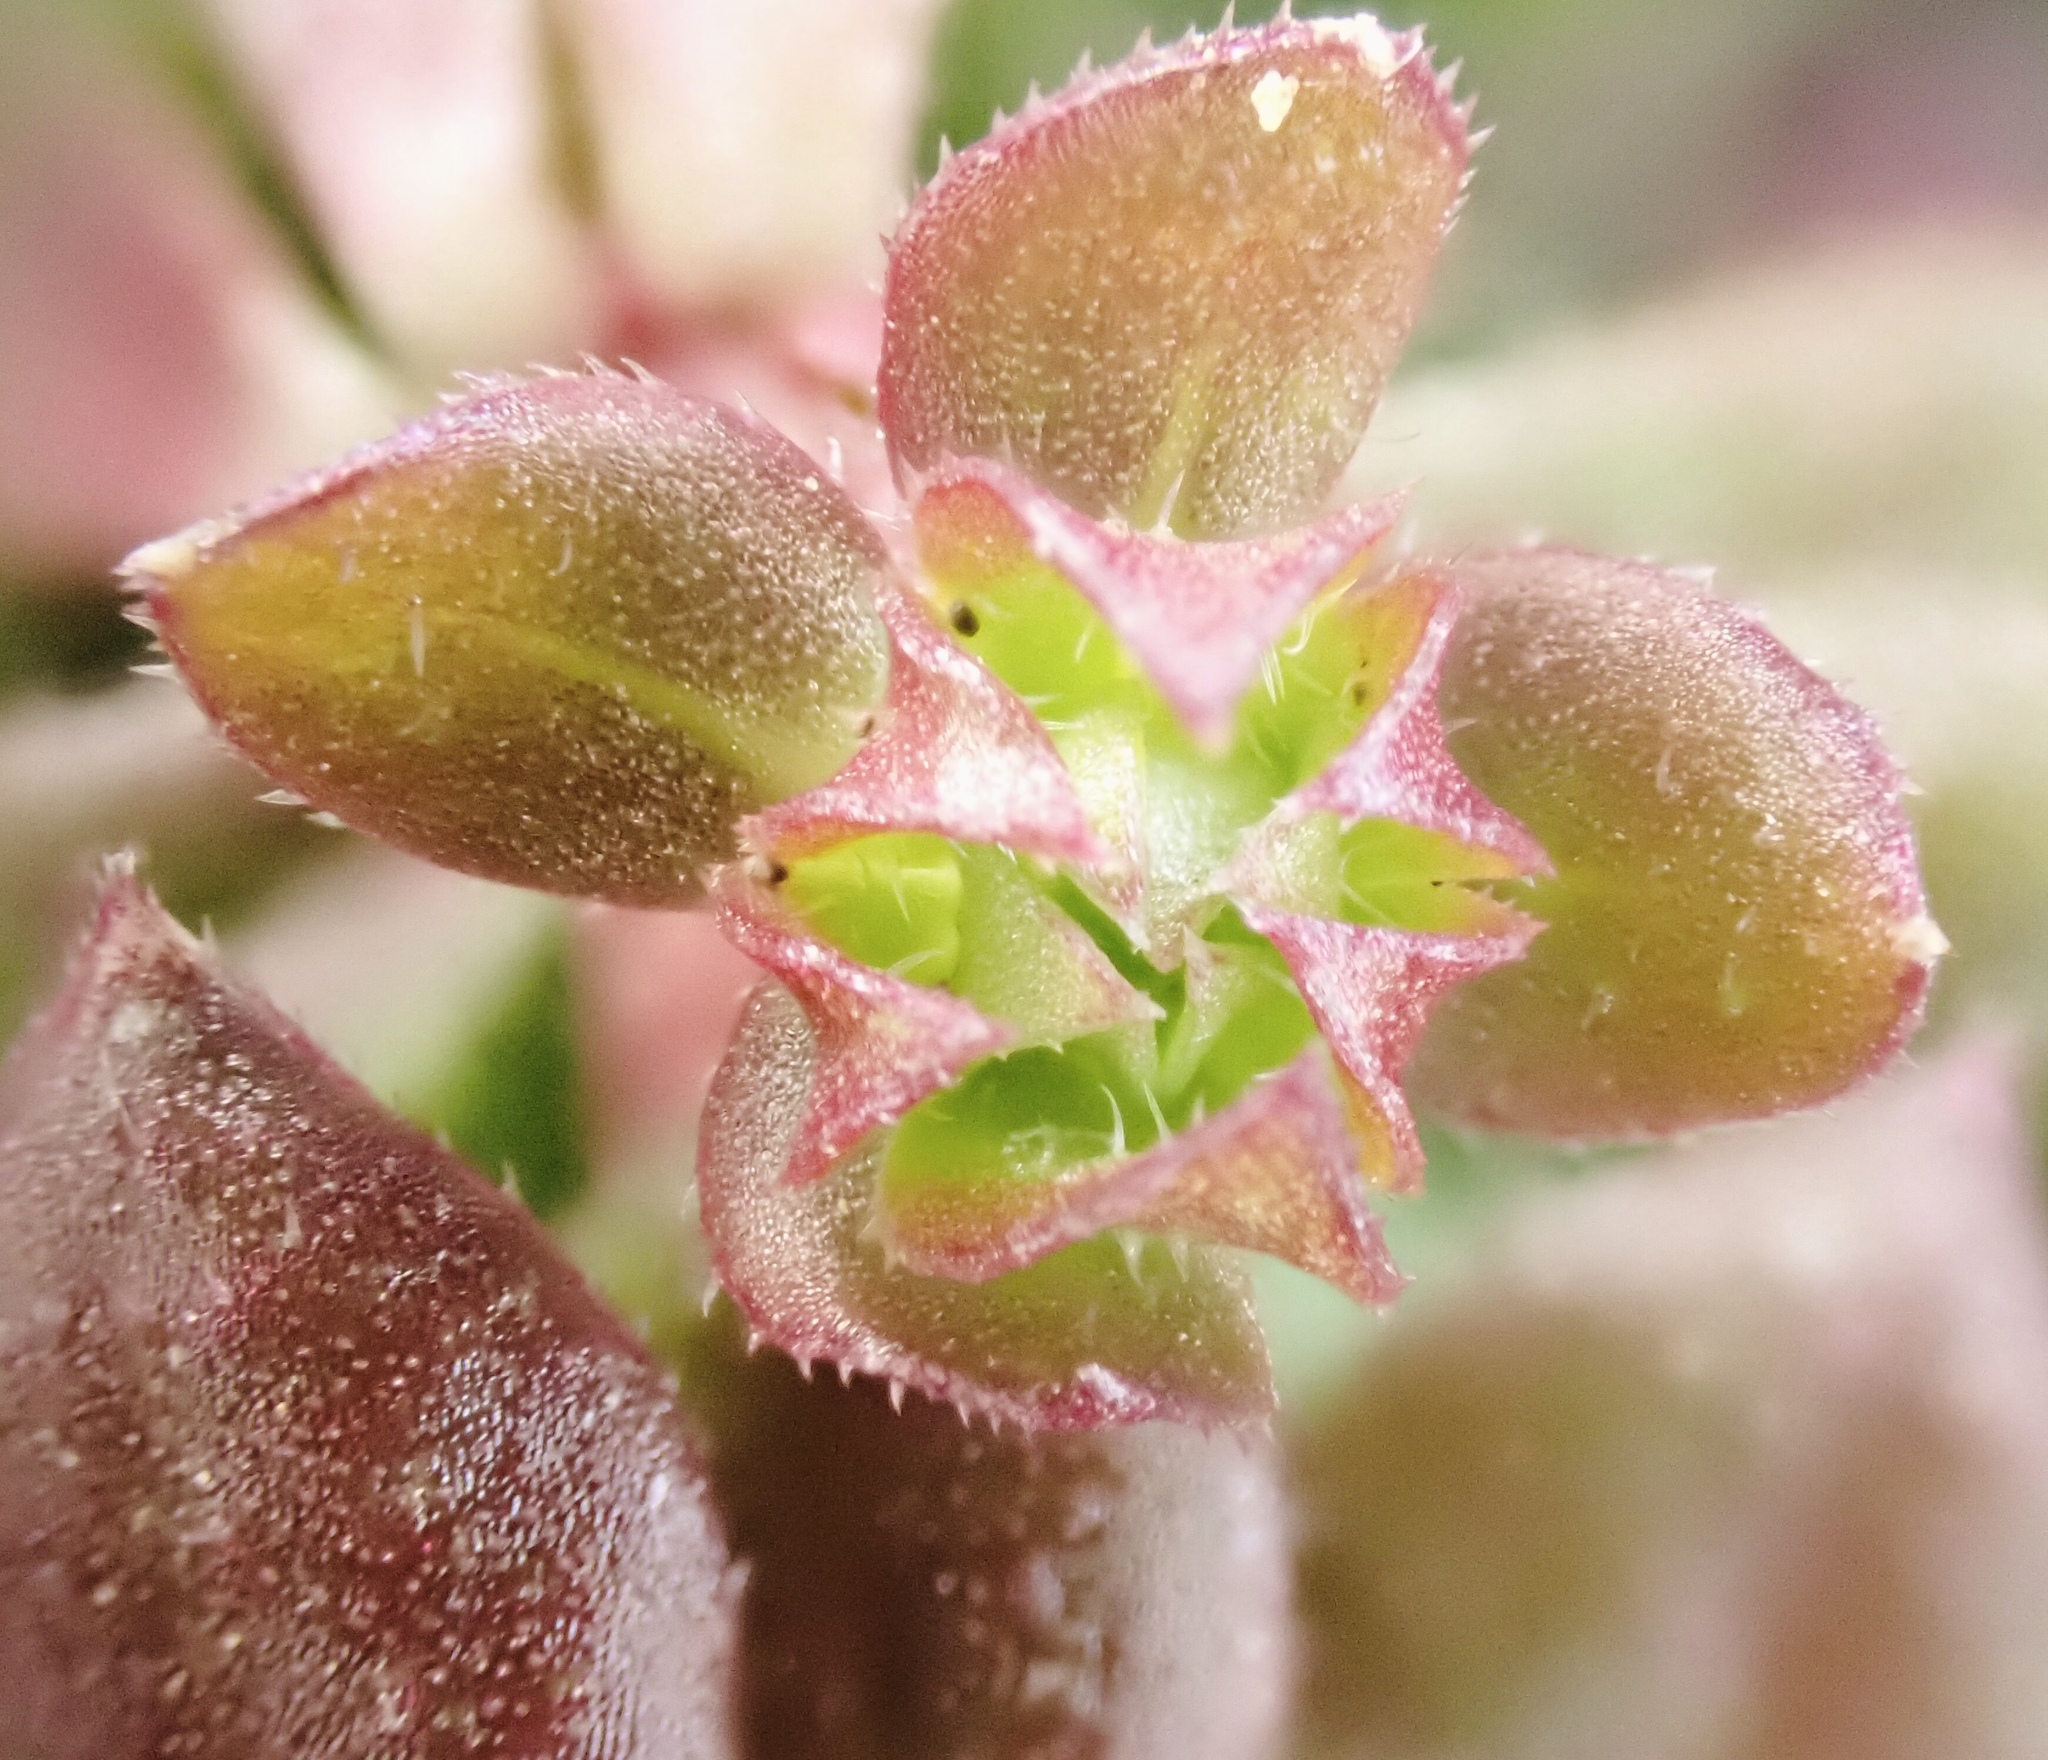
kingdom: Plantae
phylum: Tracheophyta
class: Magnoliopsida
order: Gentianales
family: Rubiaceae
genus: Sherardia
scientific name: Sherardia arvensis
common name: Field madder
